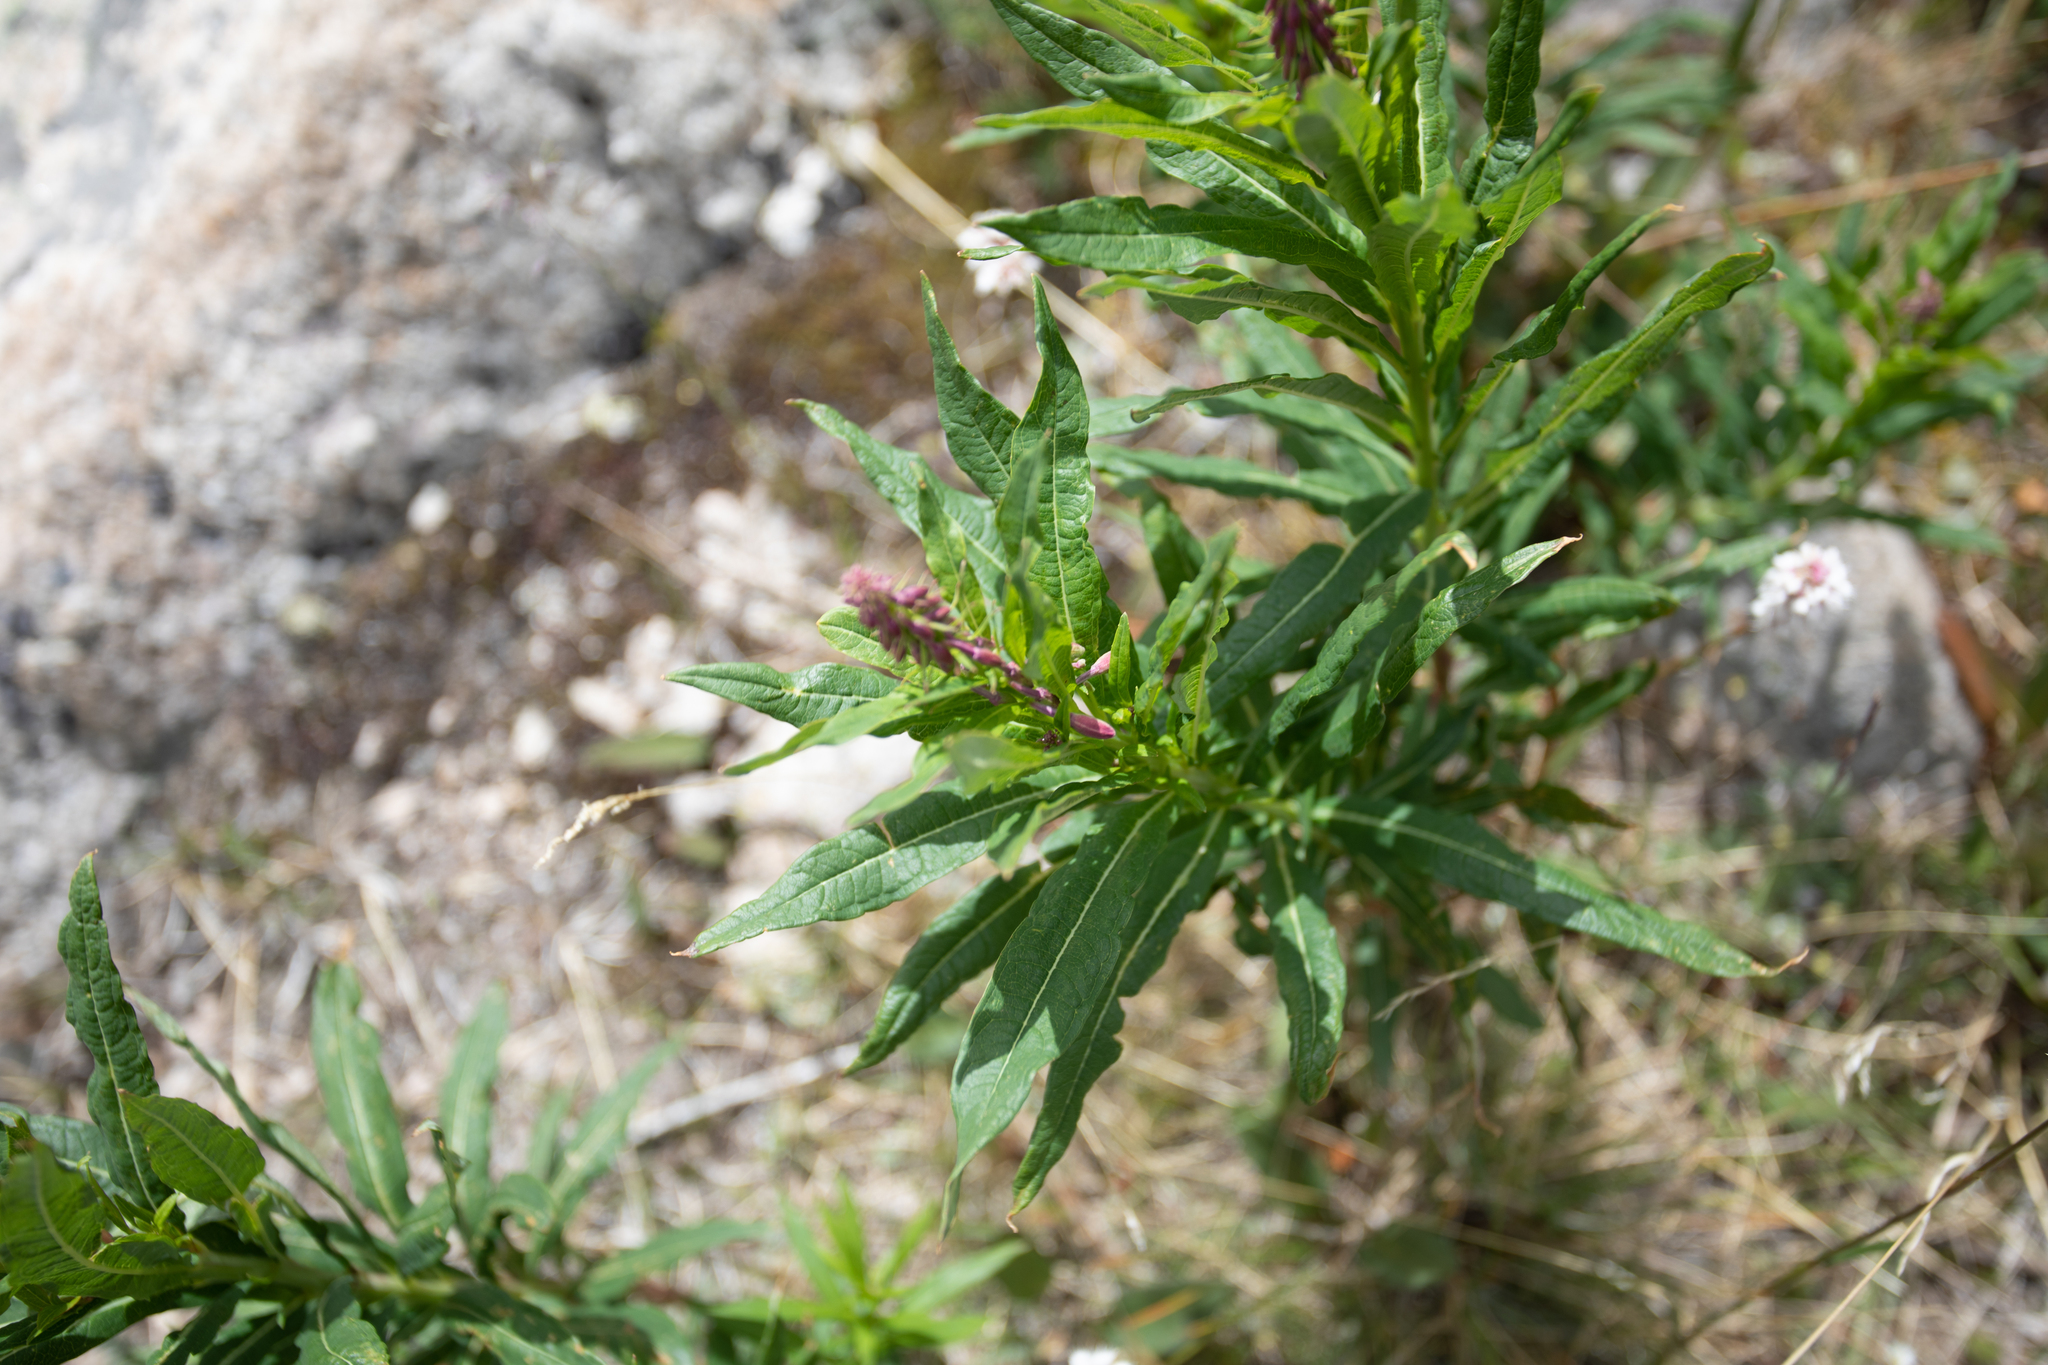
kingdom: Plantae
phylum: Tracheophyta
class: Magnoliopsida
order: Myrtales
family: Onagraceae
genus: Chamaenerion
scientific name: Chamaenerion angustifolium
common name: Fireweed
